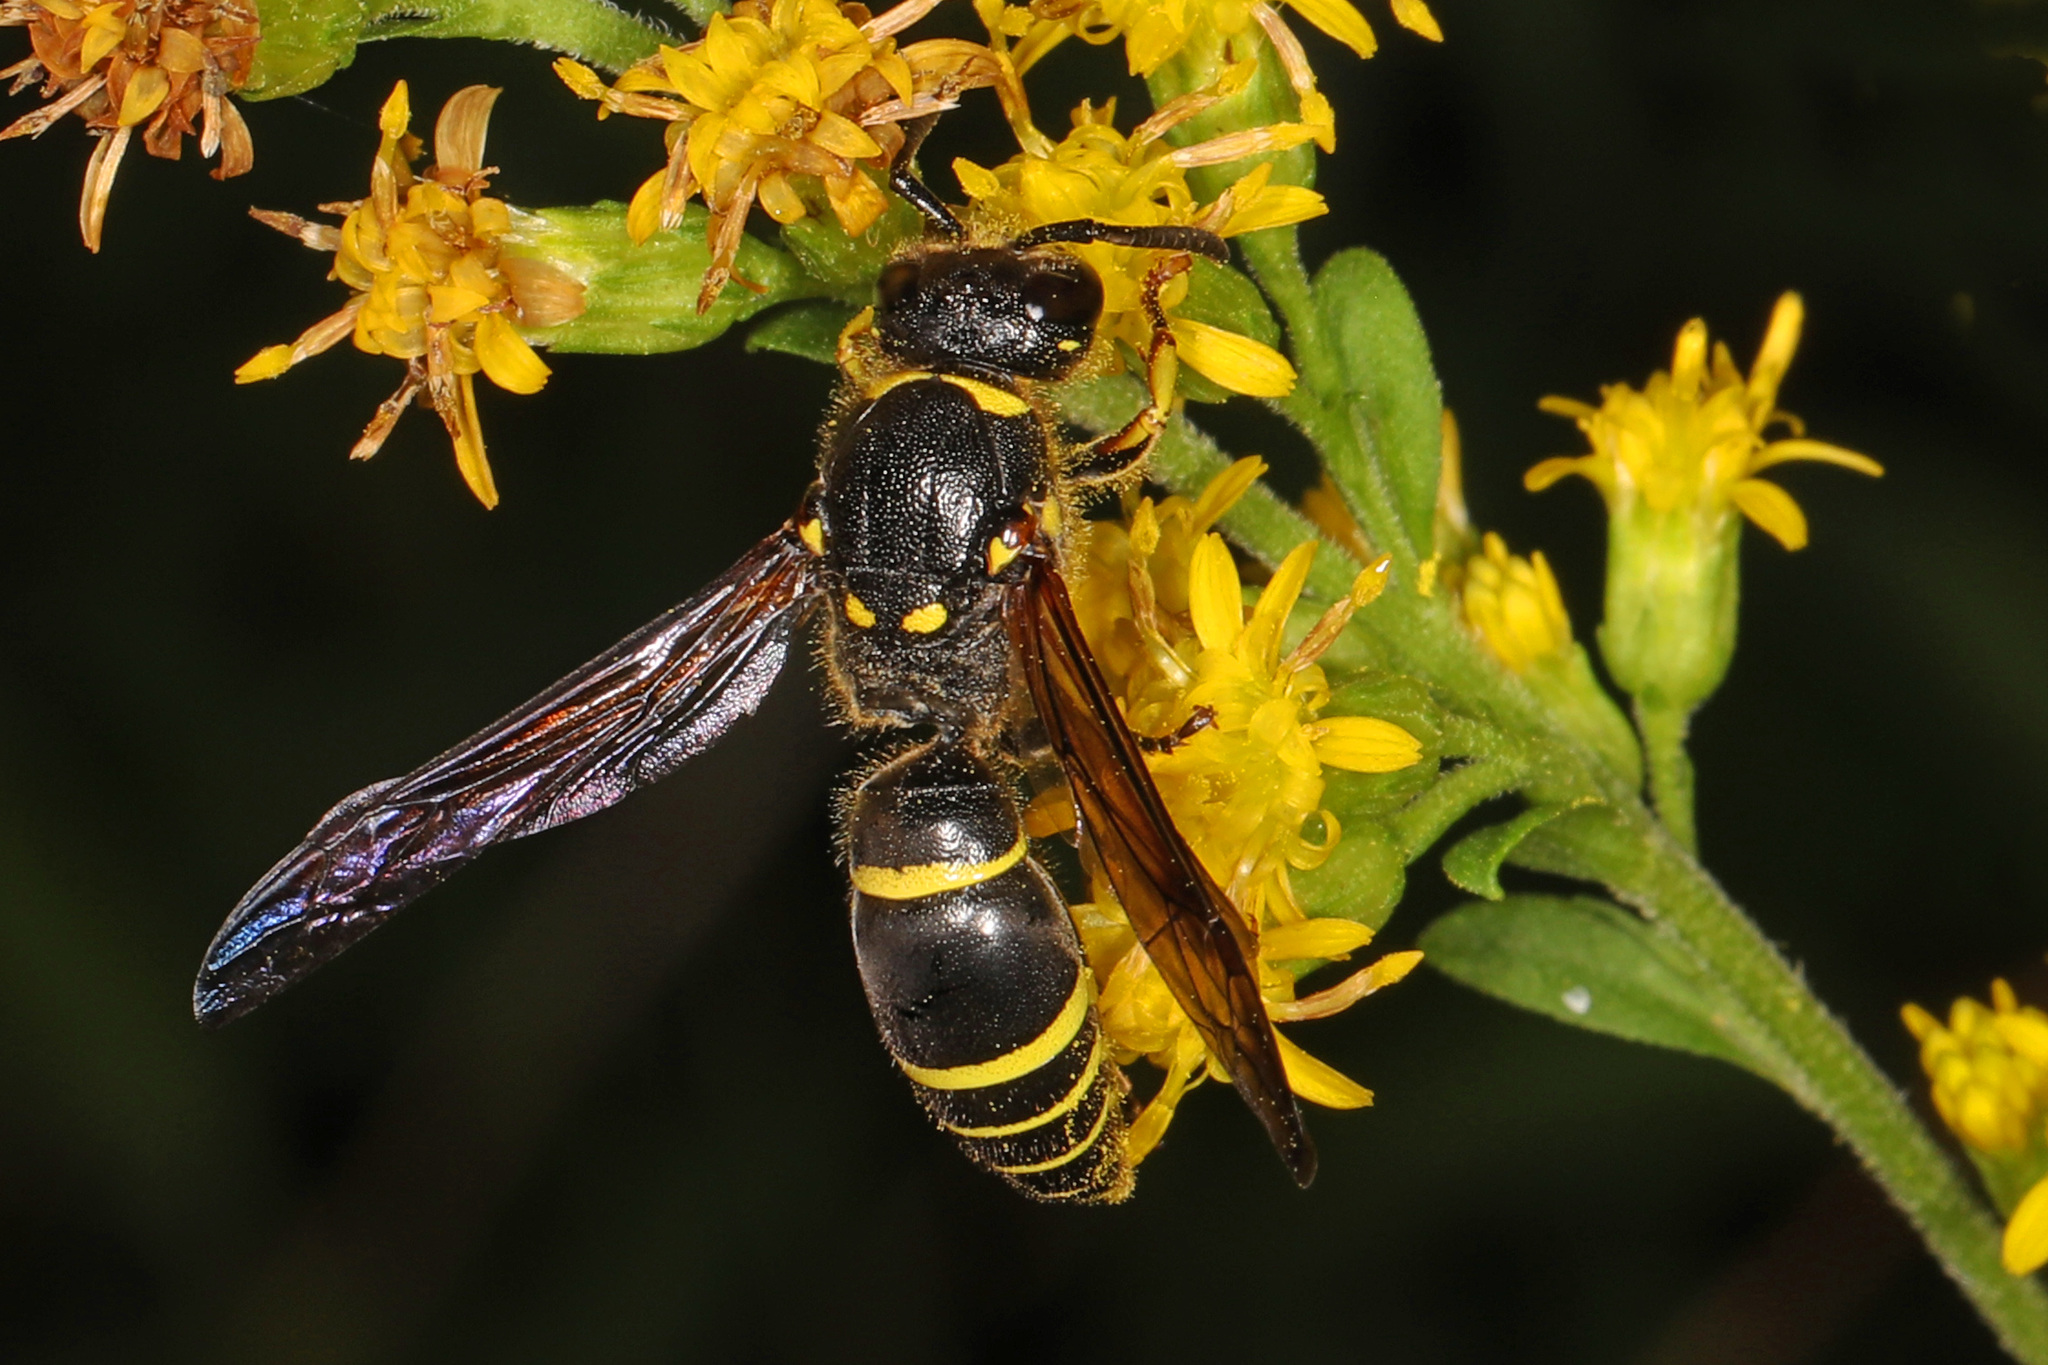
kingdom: Animalia
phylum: Arthropoda
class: Insecta
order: Hymenoptera
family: Vespidae
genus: Ancistrocerus
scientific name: Ancistrocerus
